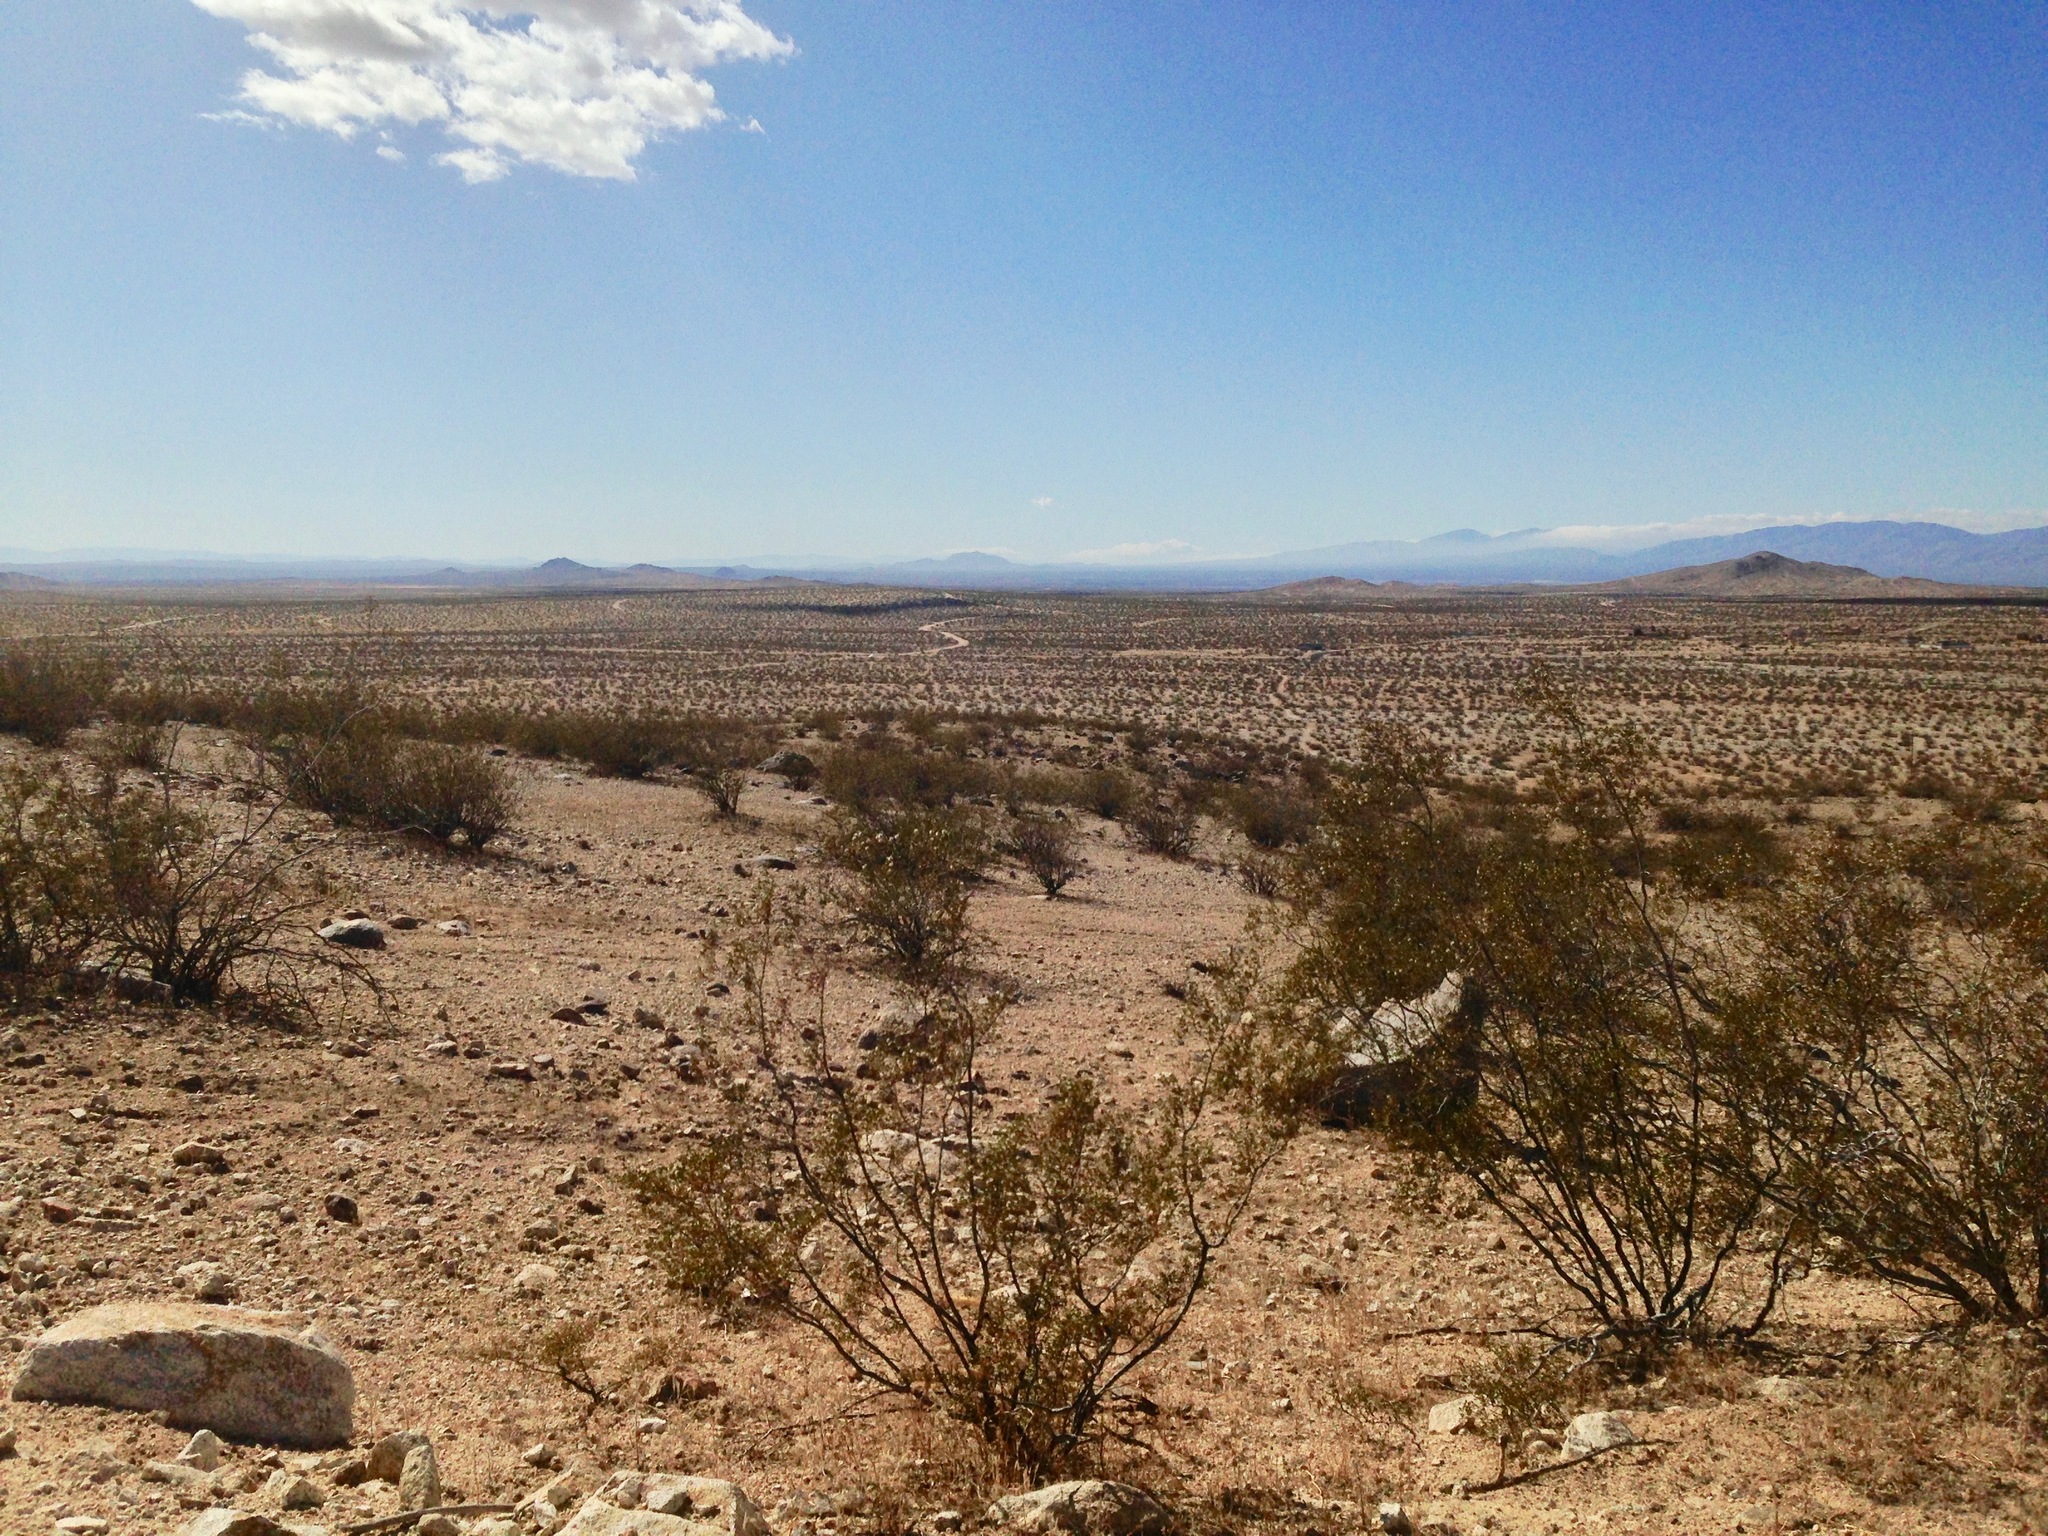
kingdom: Plantae
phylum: Tracheophyta
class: Magnoliopsida
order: Zygophyllales
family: Zygophyllaceae
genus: Larrea
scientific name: Larrea tridentata
